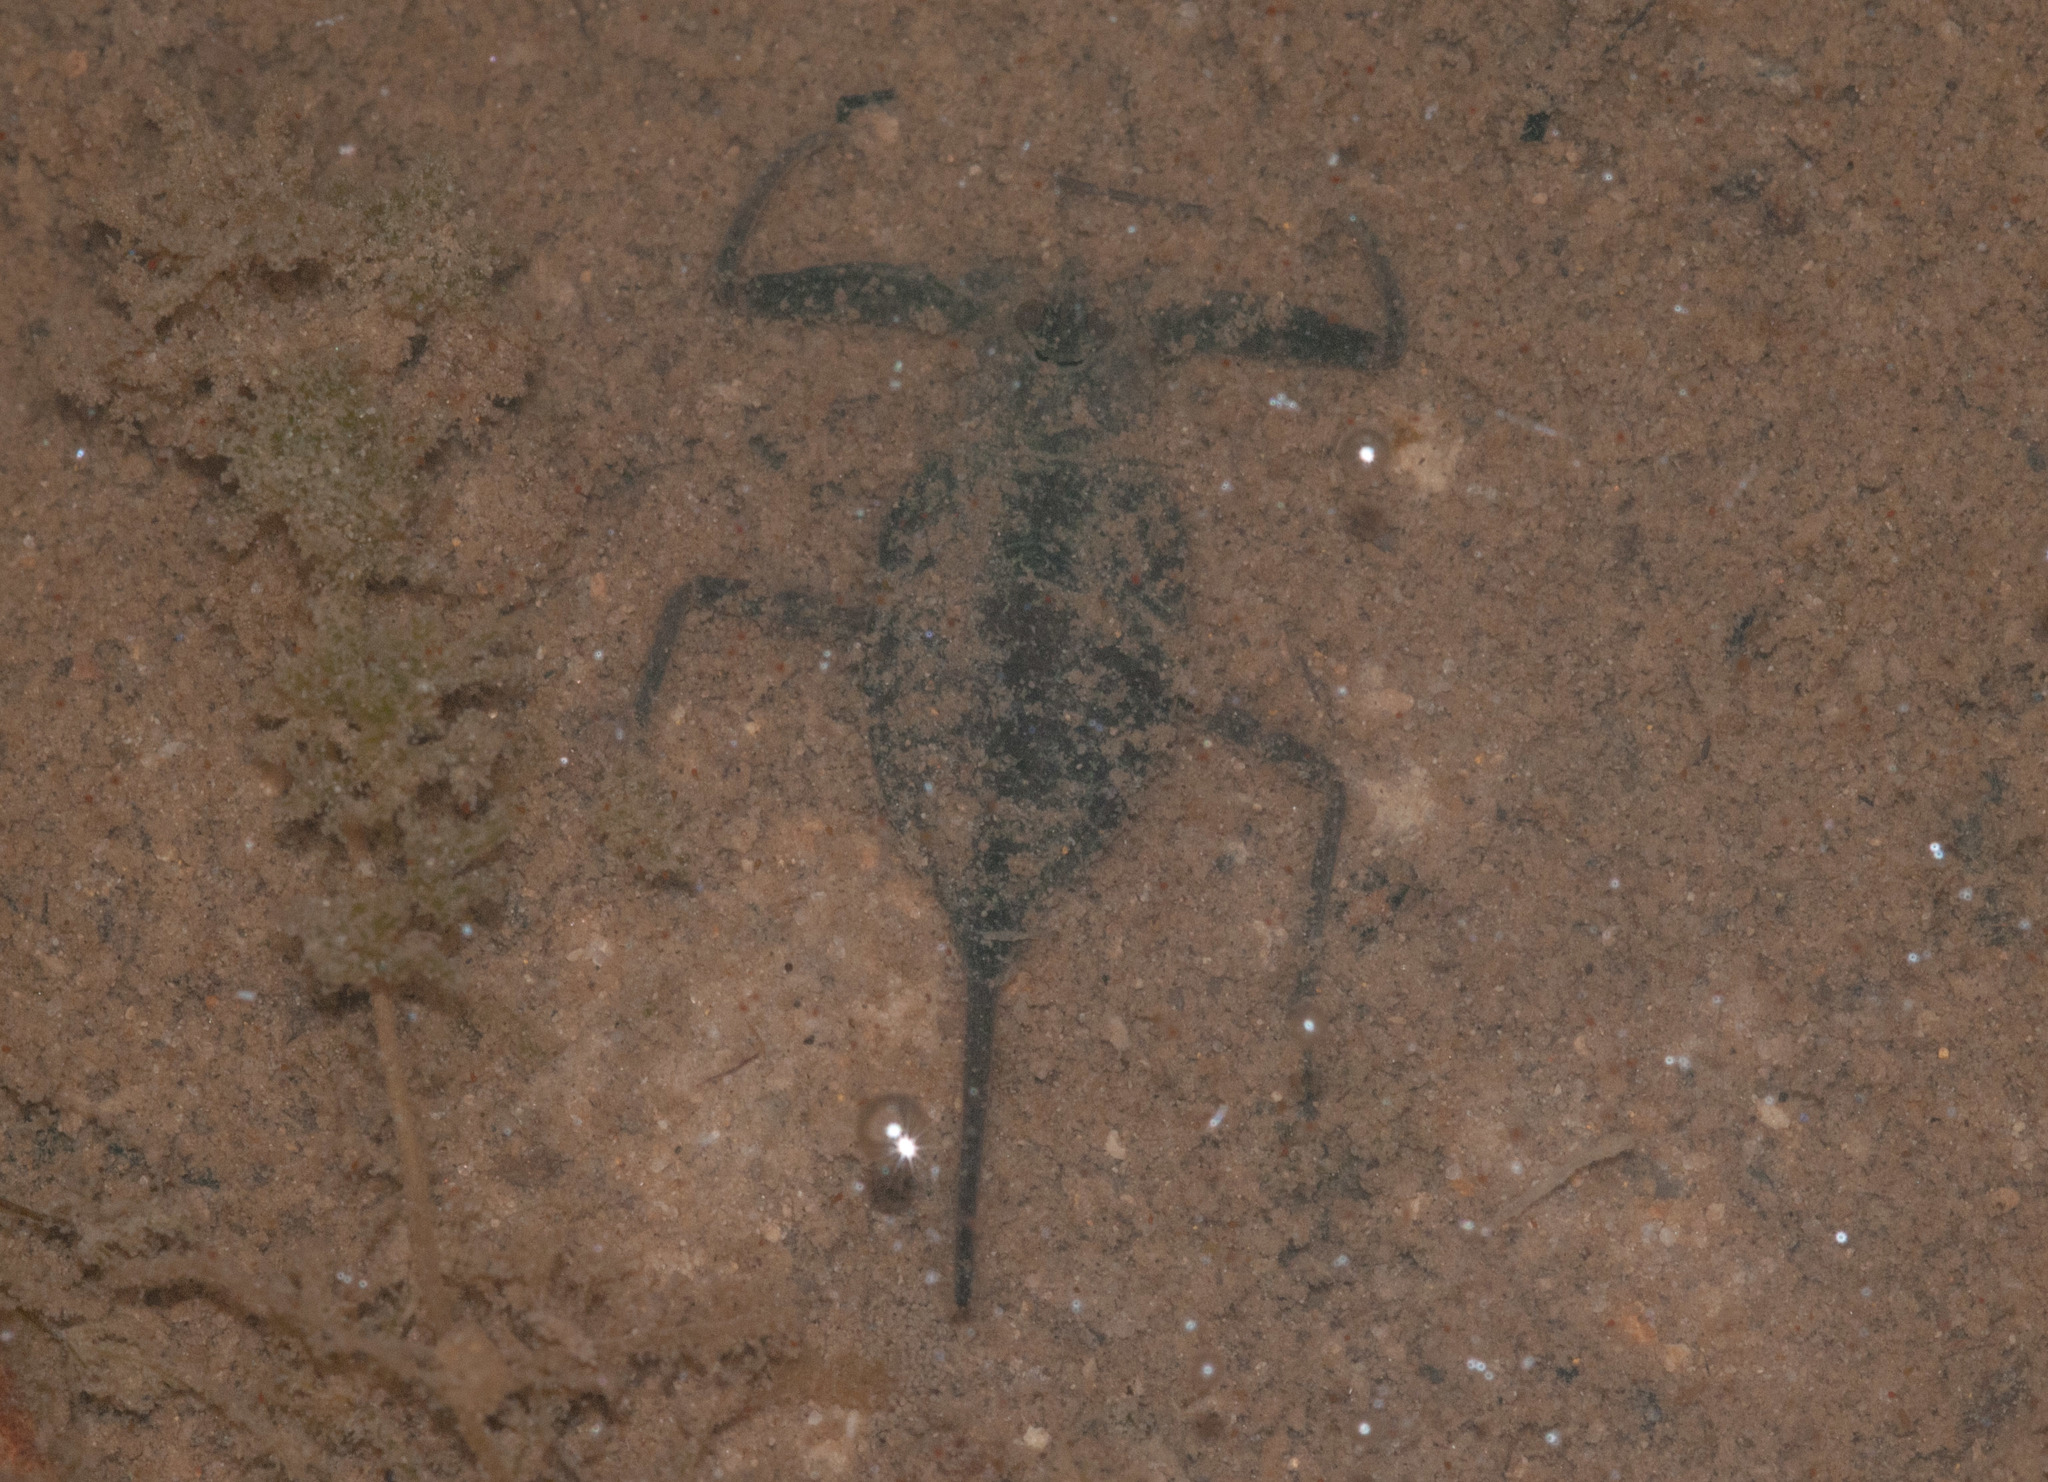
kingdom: Animalia
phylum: Arthropoda
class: Insecta
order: Hemiptera
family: Nepidae
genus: Laccotrephes
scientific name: Laccotrephes tristis
